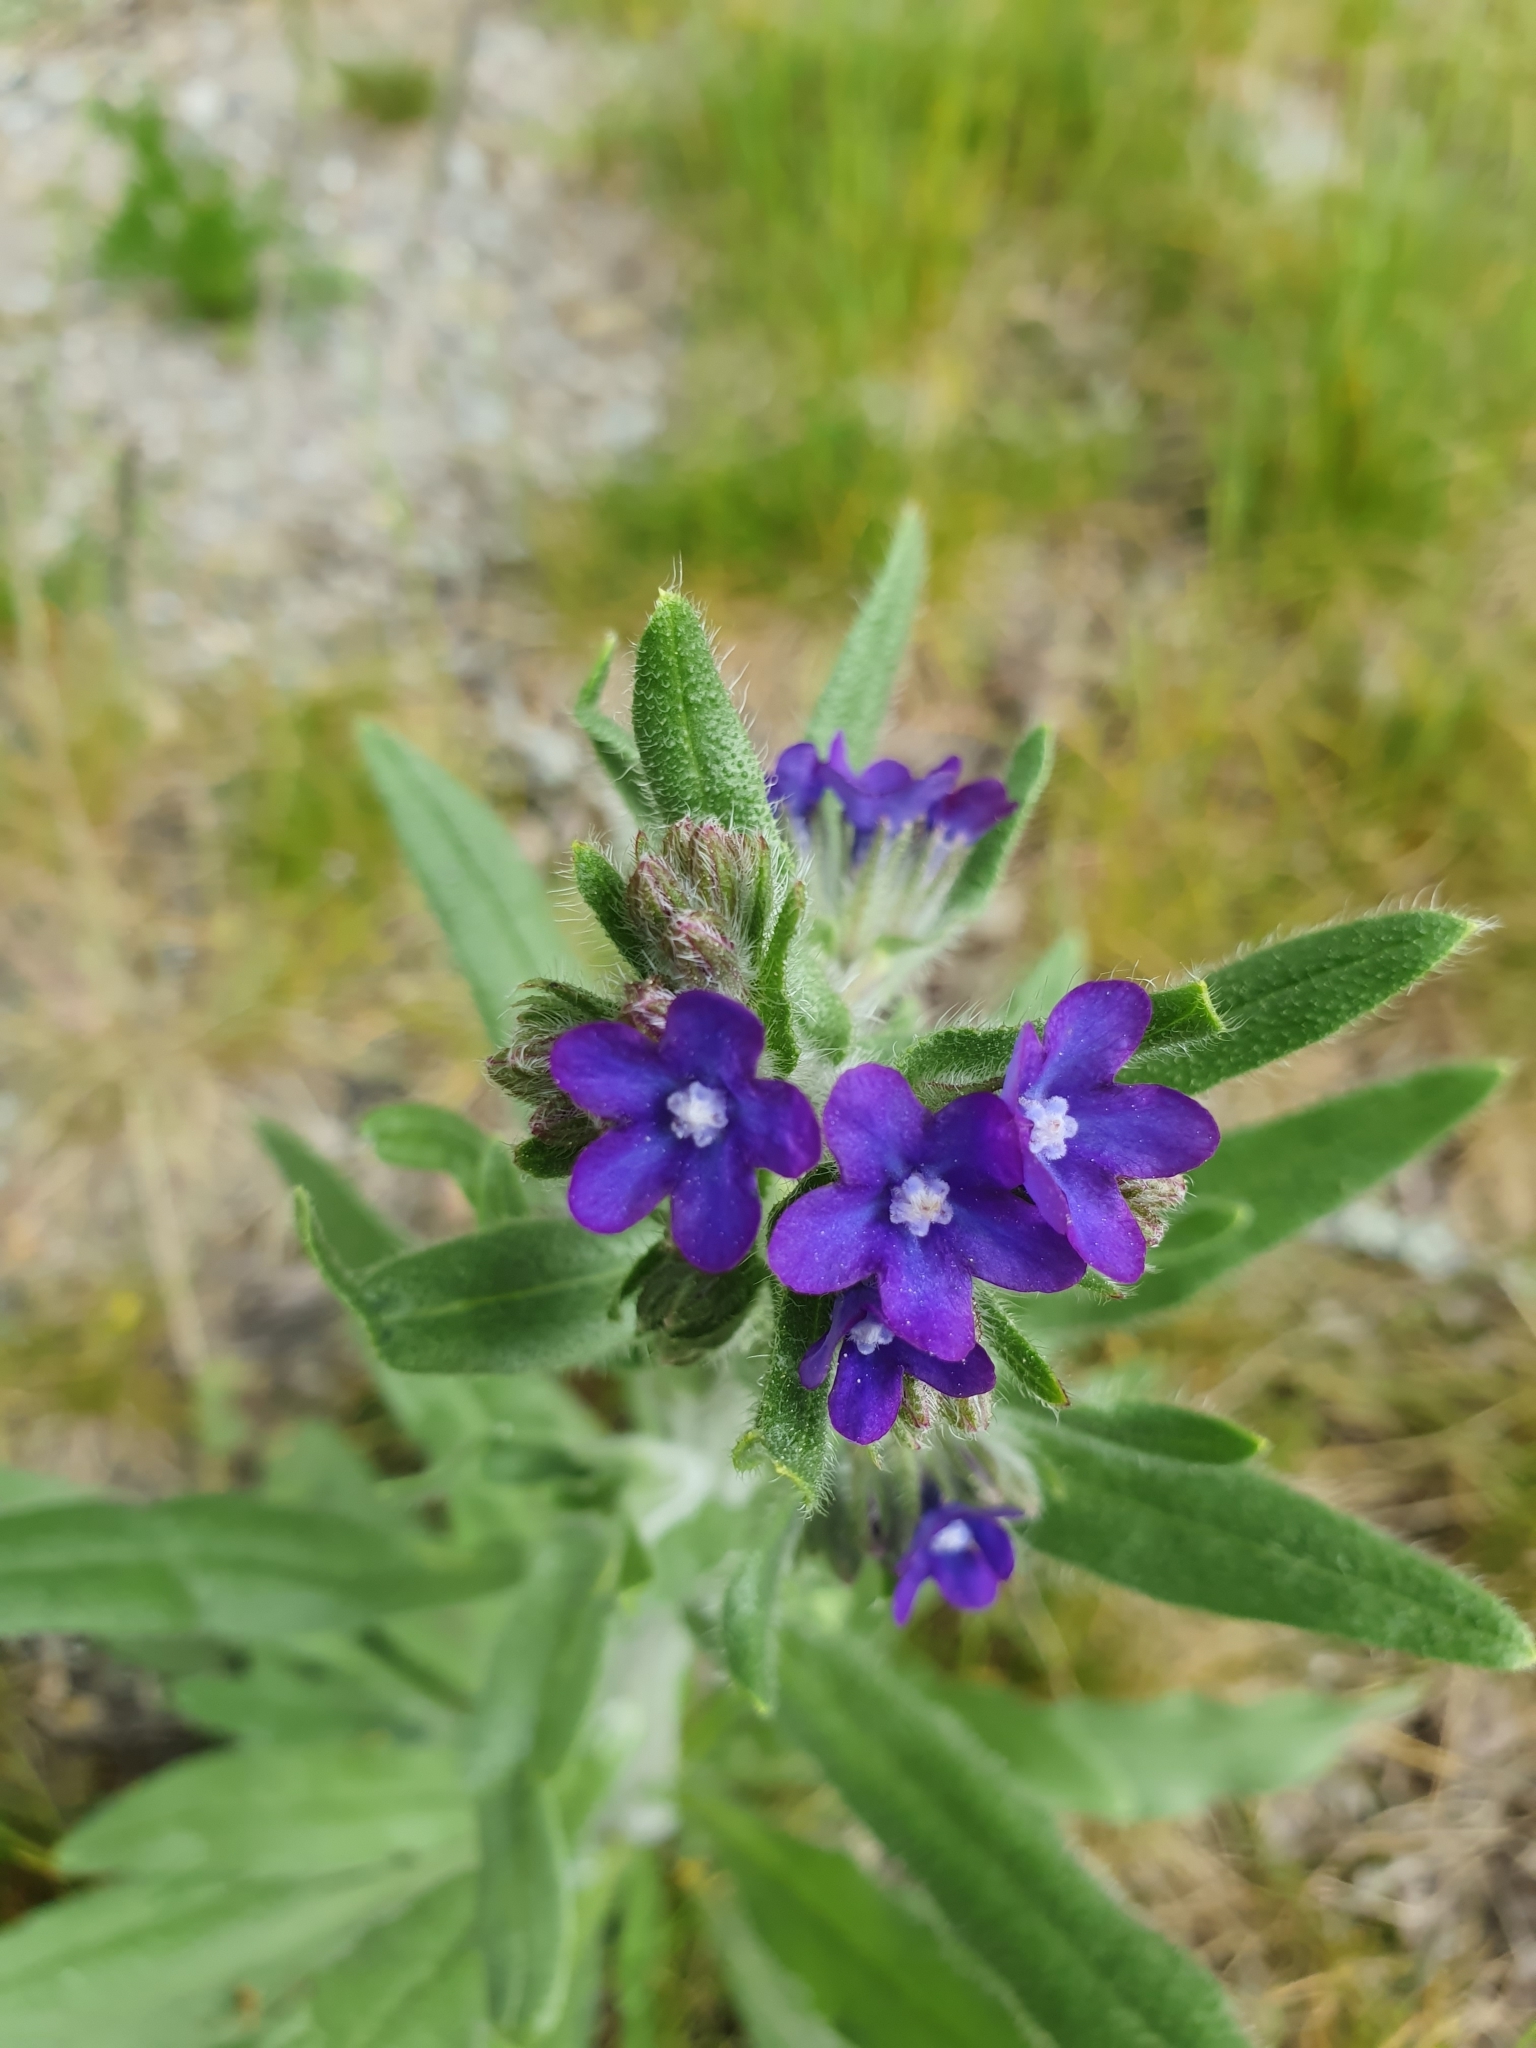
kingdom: Plantae
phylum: Tracheophyta
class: Magnoliopsida
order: Boraginales
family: Boraginaceae
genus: Anchusa
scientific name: Anchusa officinalis
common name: Alkanet
